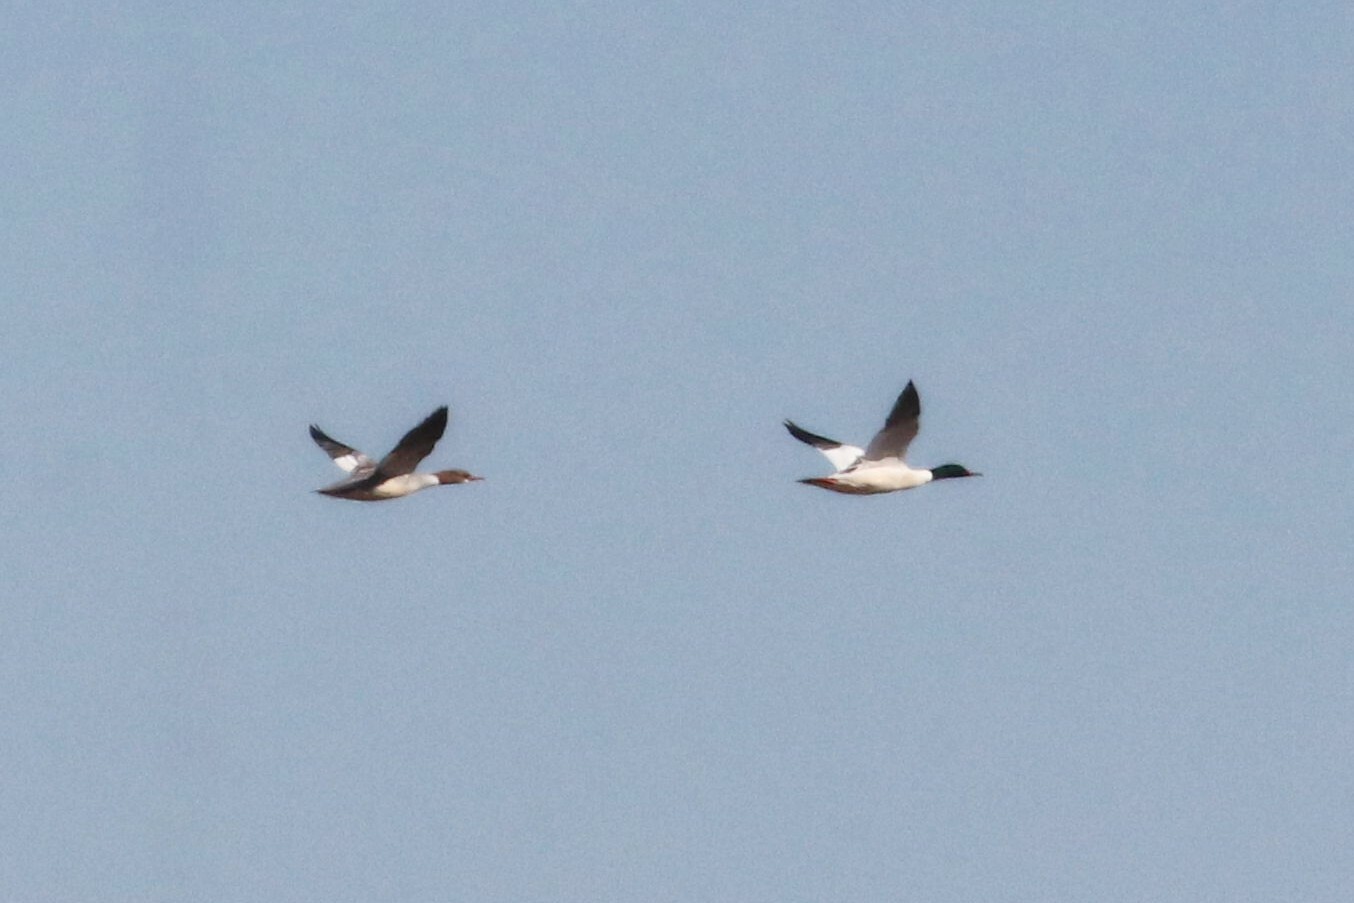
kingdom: Animalia
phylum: Chordata
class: Aves
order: Anseriformes
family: Anatidae
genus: Mergus
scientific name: Mergus merganser
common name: Common merganser
